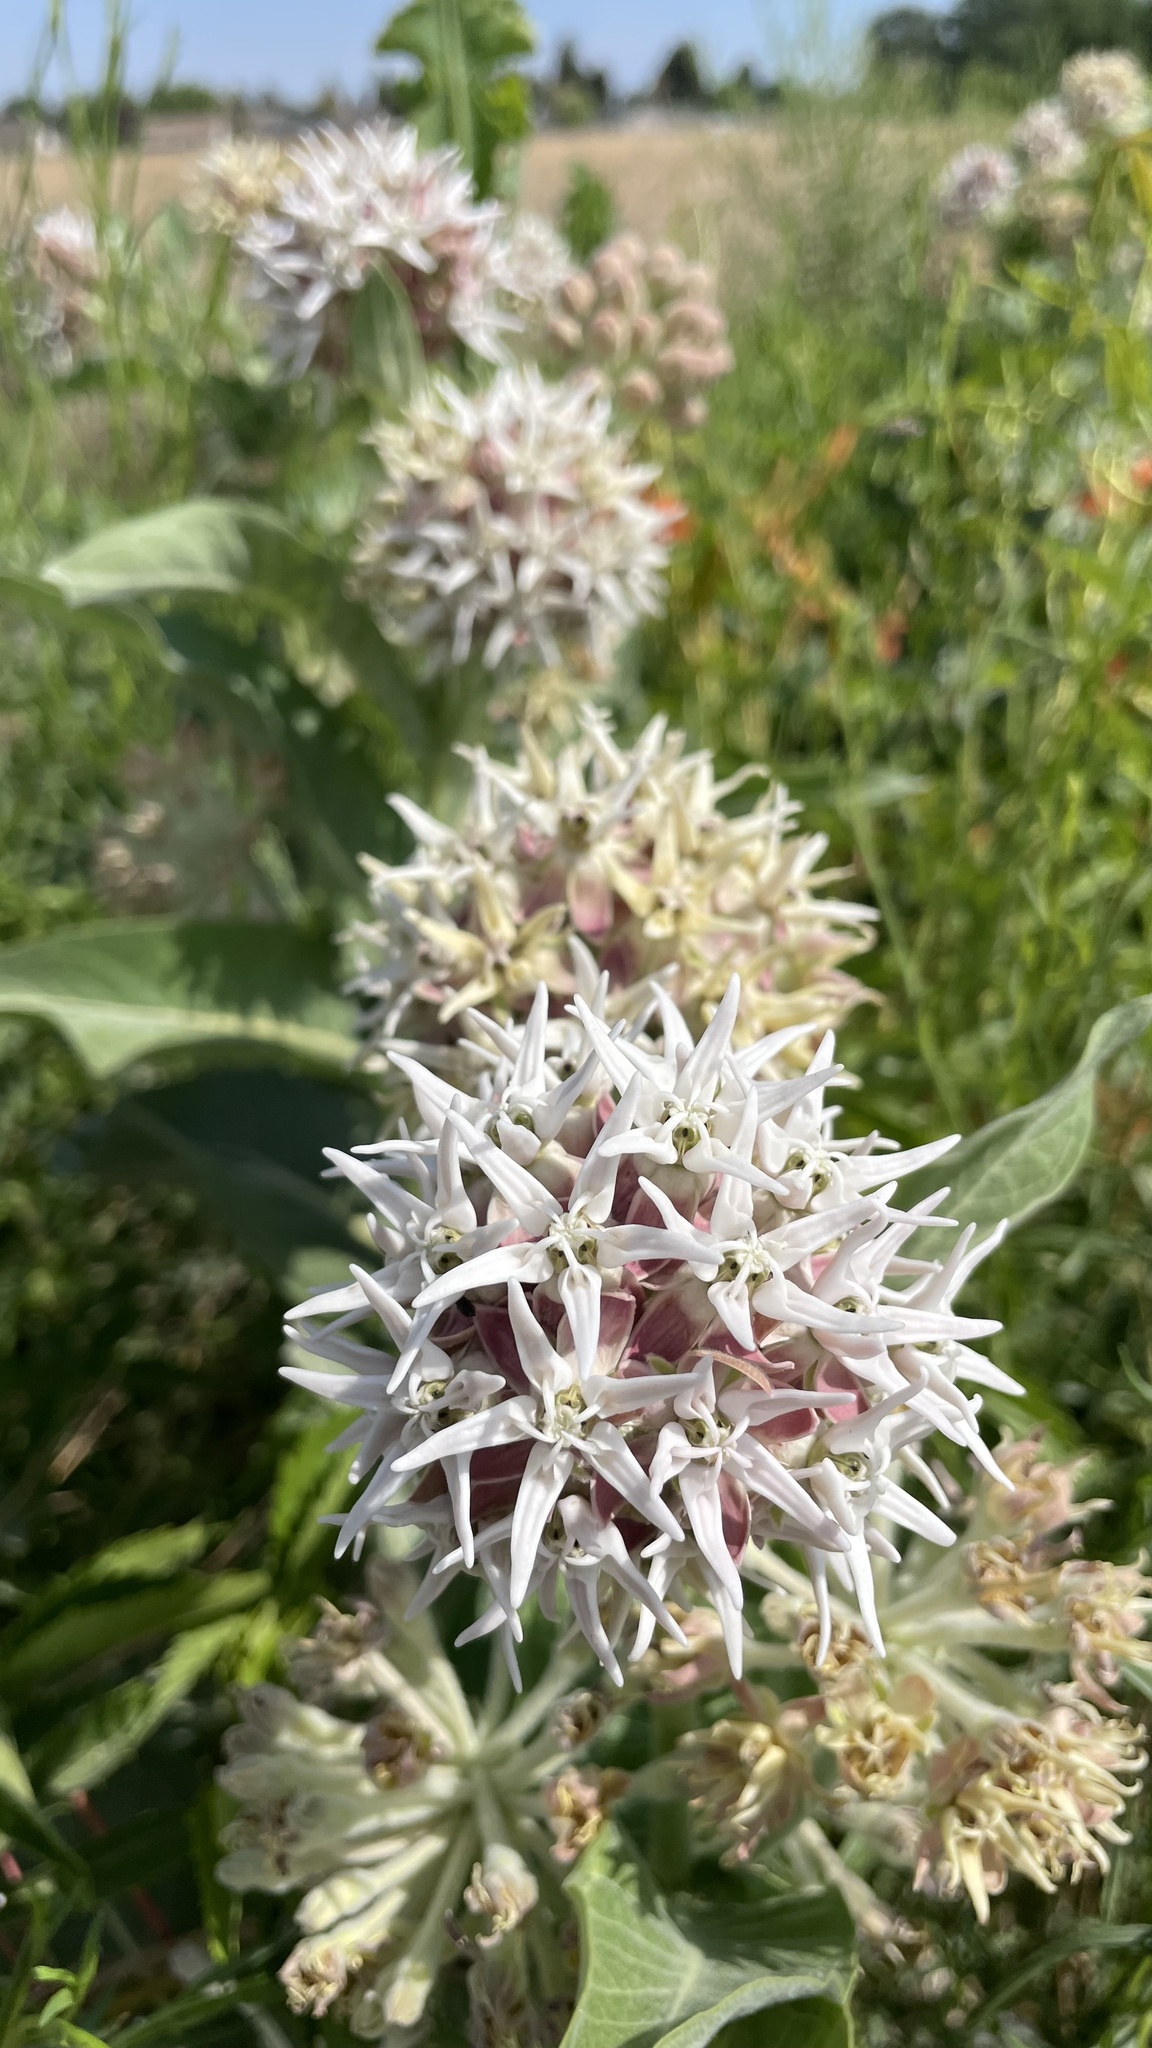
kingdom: Plantae
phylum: Tracheophyta
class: Magnoliopsida
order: Gentianales
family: Apocynaceae
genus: Asclepias
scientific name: Asclepias speciosa
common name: Showy milkweed
